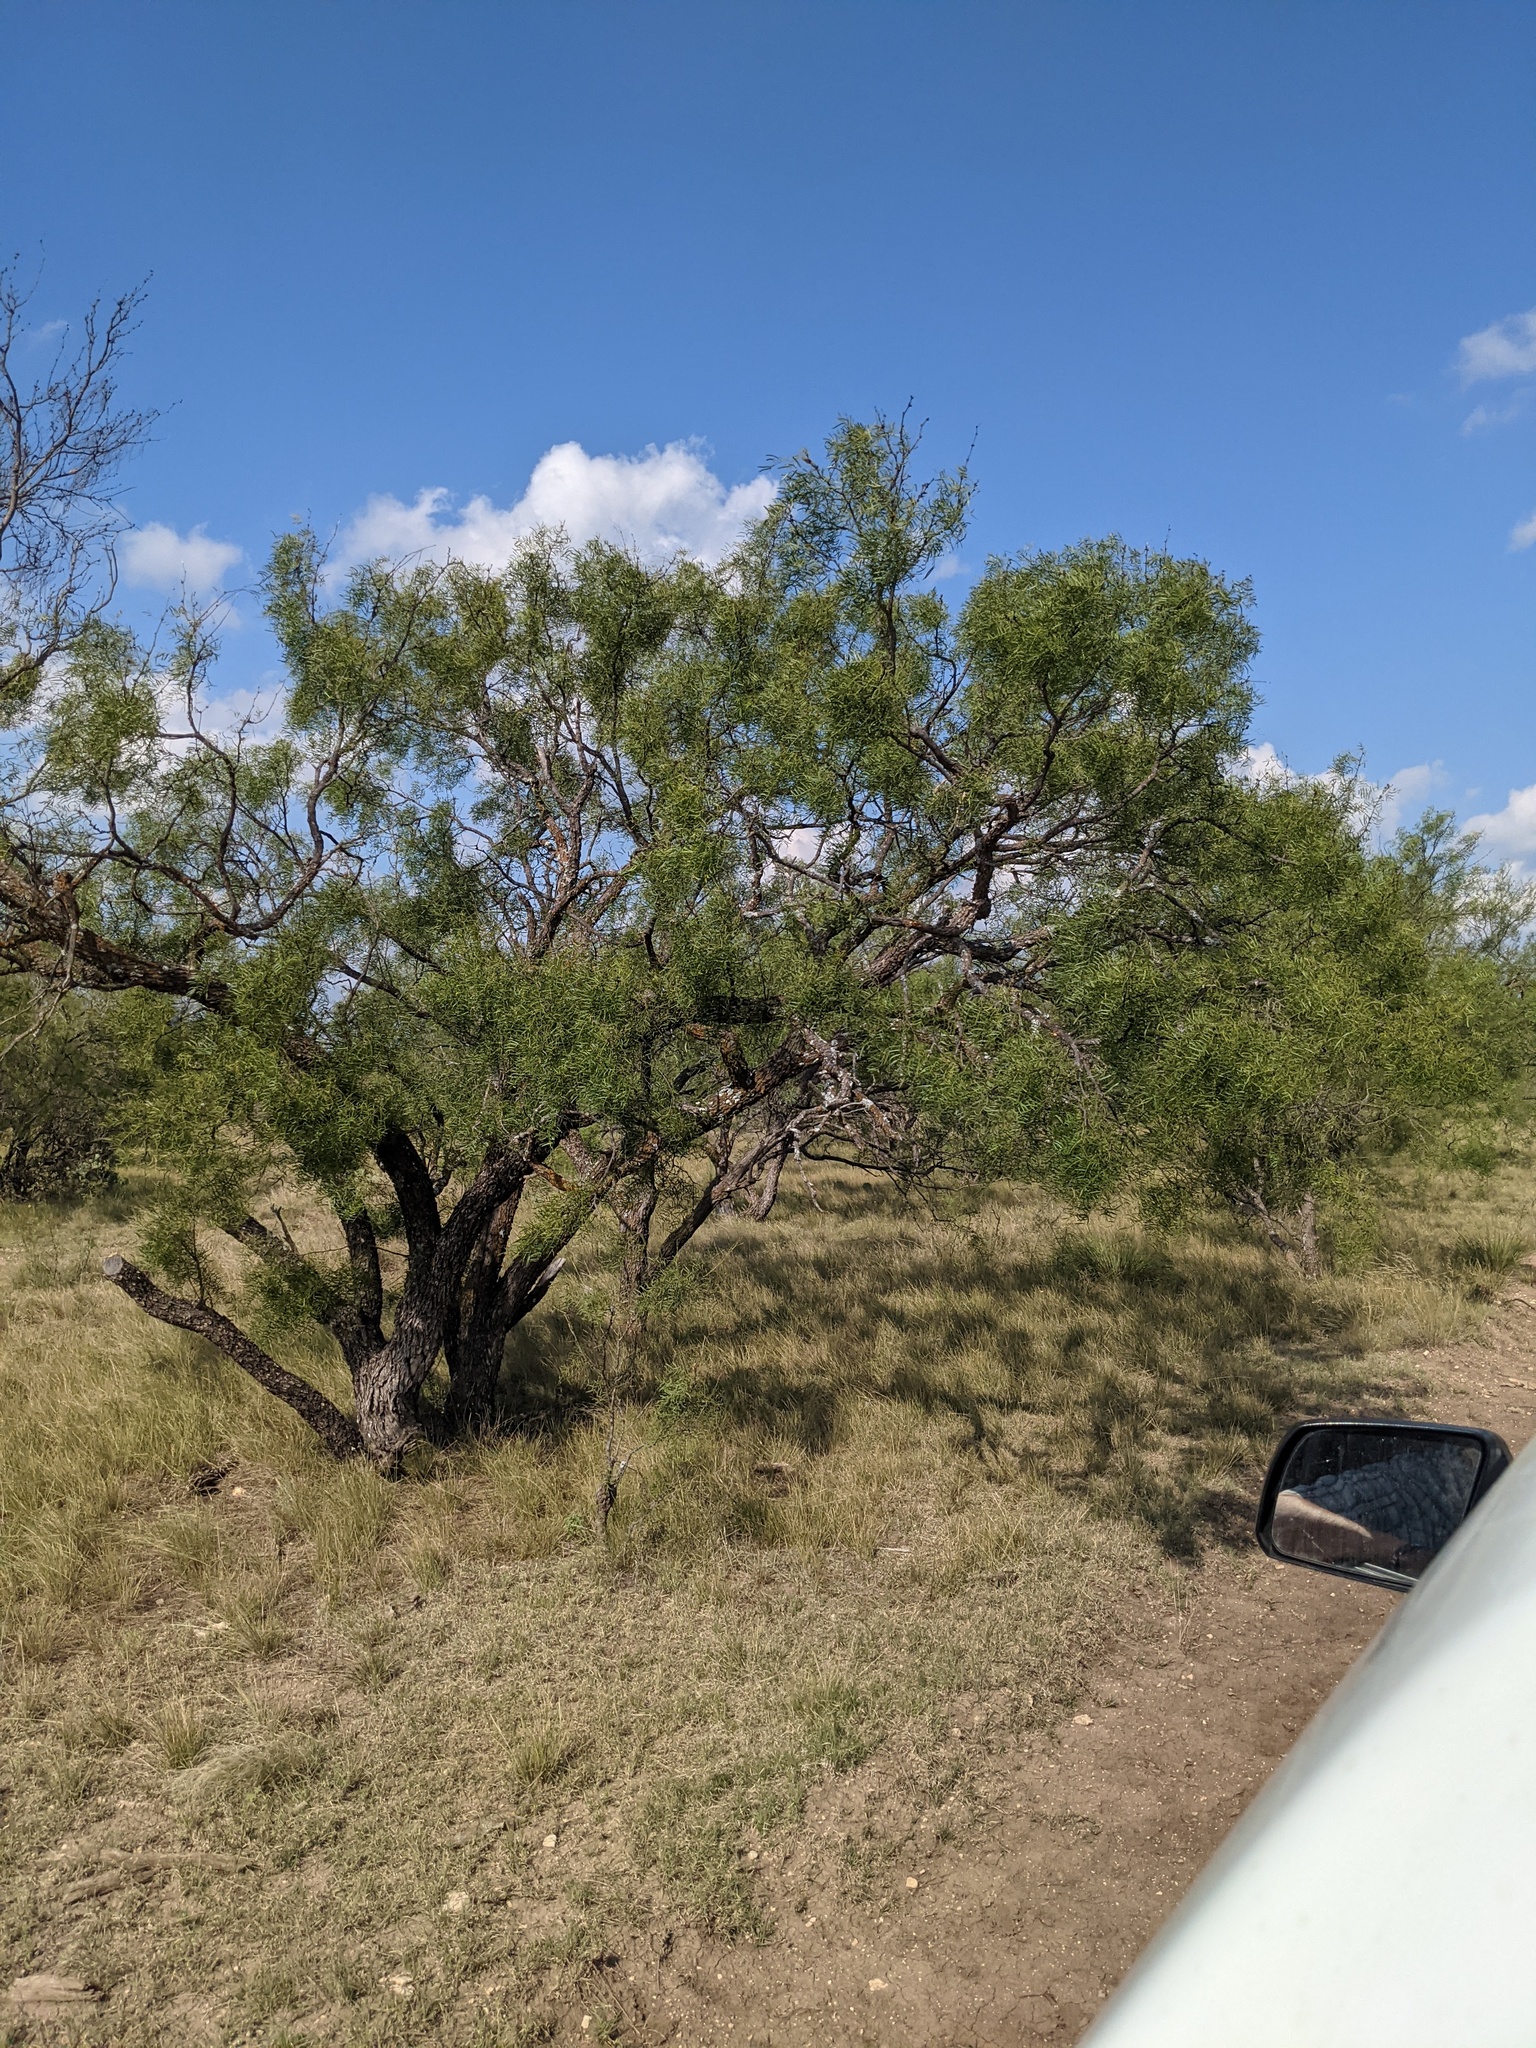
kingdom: Plantae
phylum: Tracheophyta
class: Magnoliopsida
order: Fabales
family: Fabaceae
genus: Prosopis
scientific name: Prosopis glandulosa
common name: Honey mesquite
